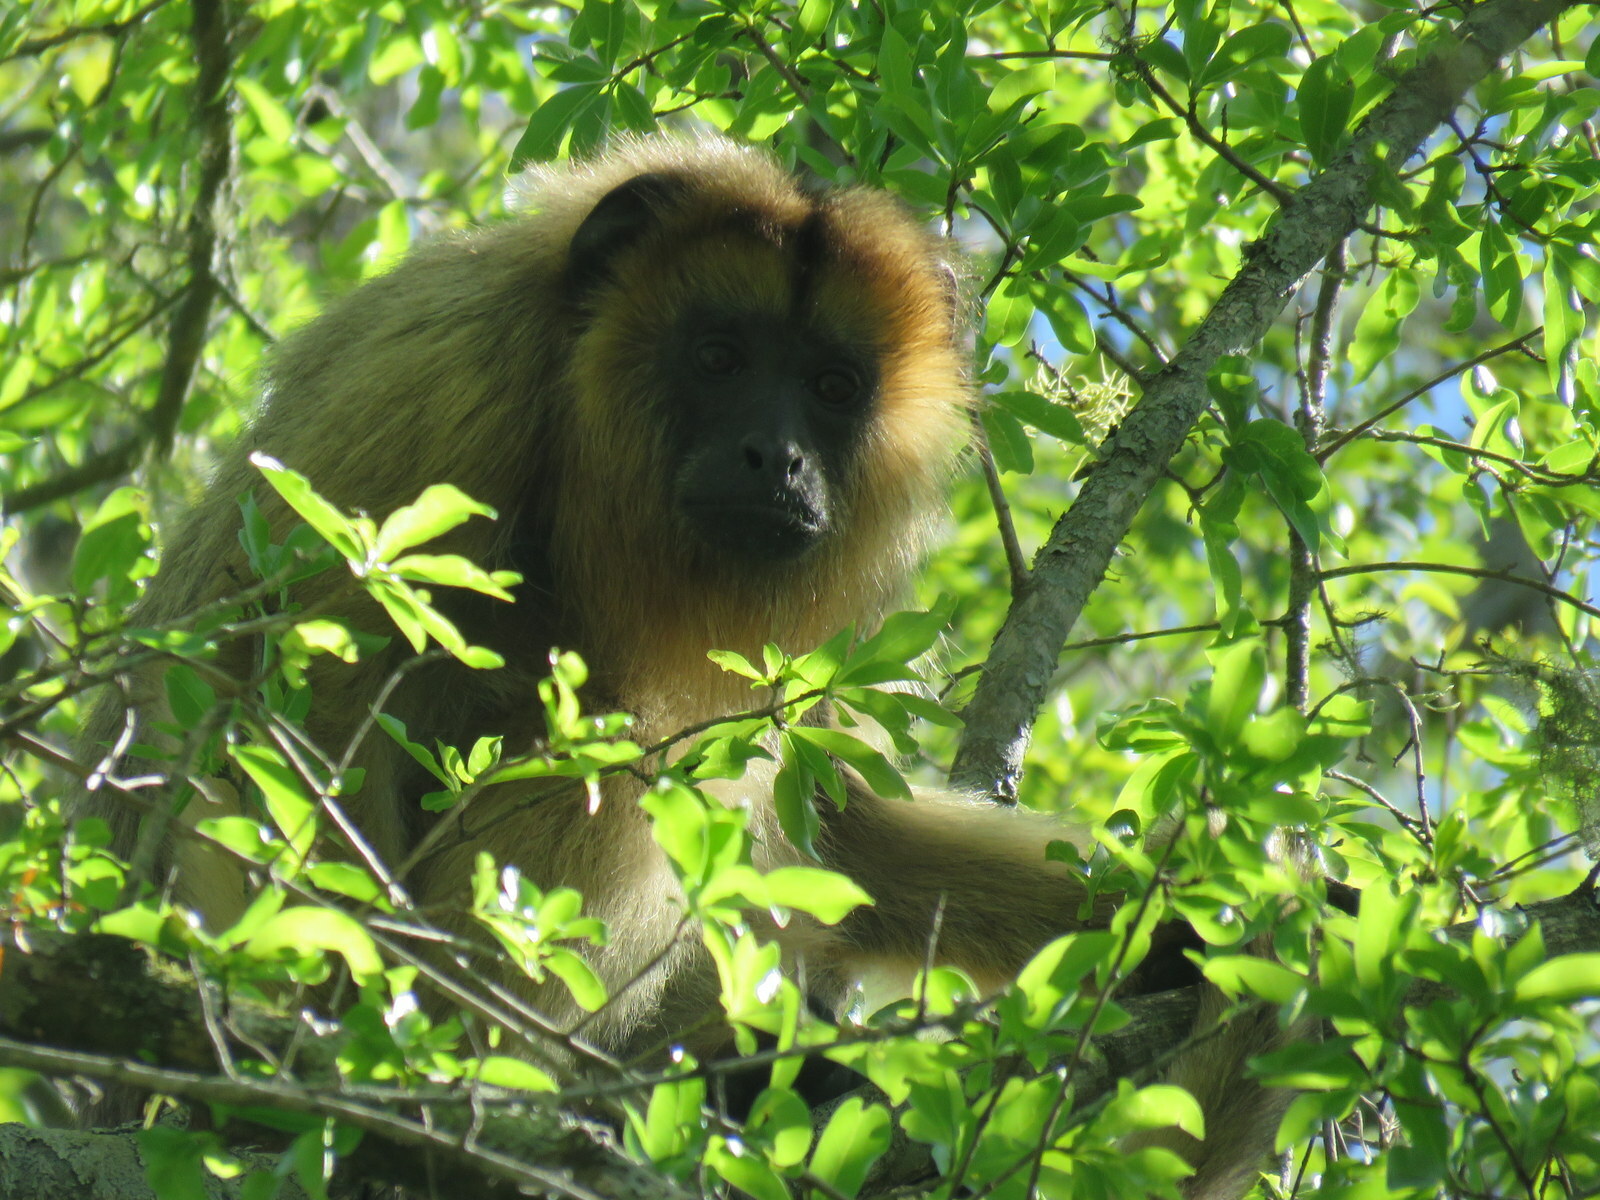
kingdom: Animalia
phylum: Chordata
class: Mammalia
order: Primates
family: Atelidae
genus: Alouatta
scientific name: Alouatta caraya
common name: Black howler
